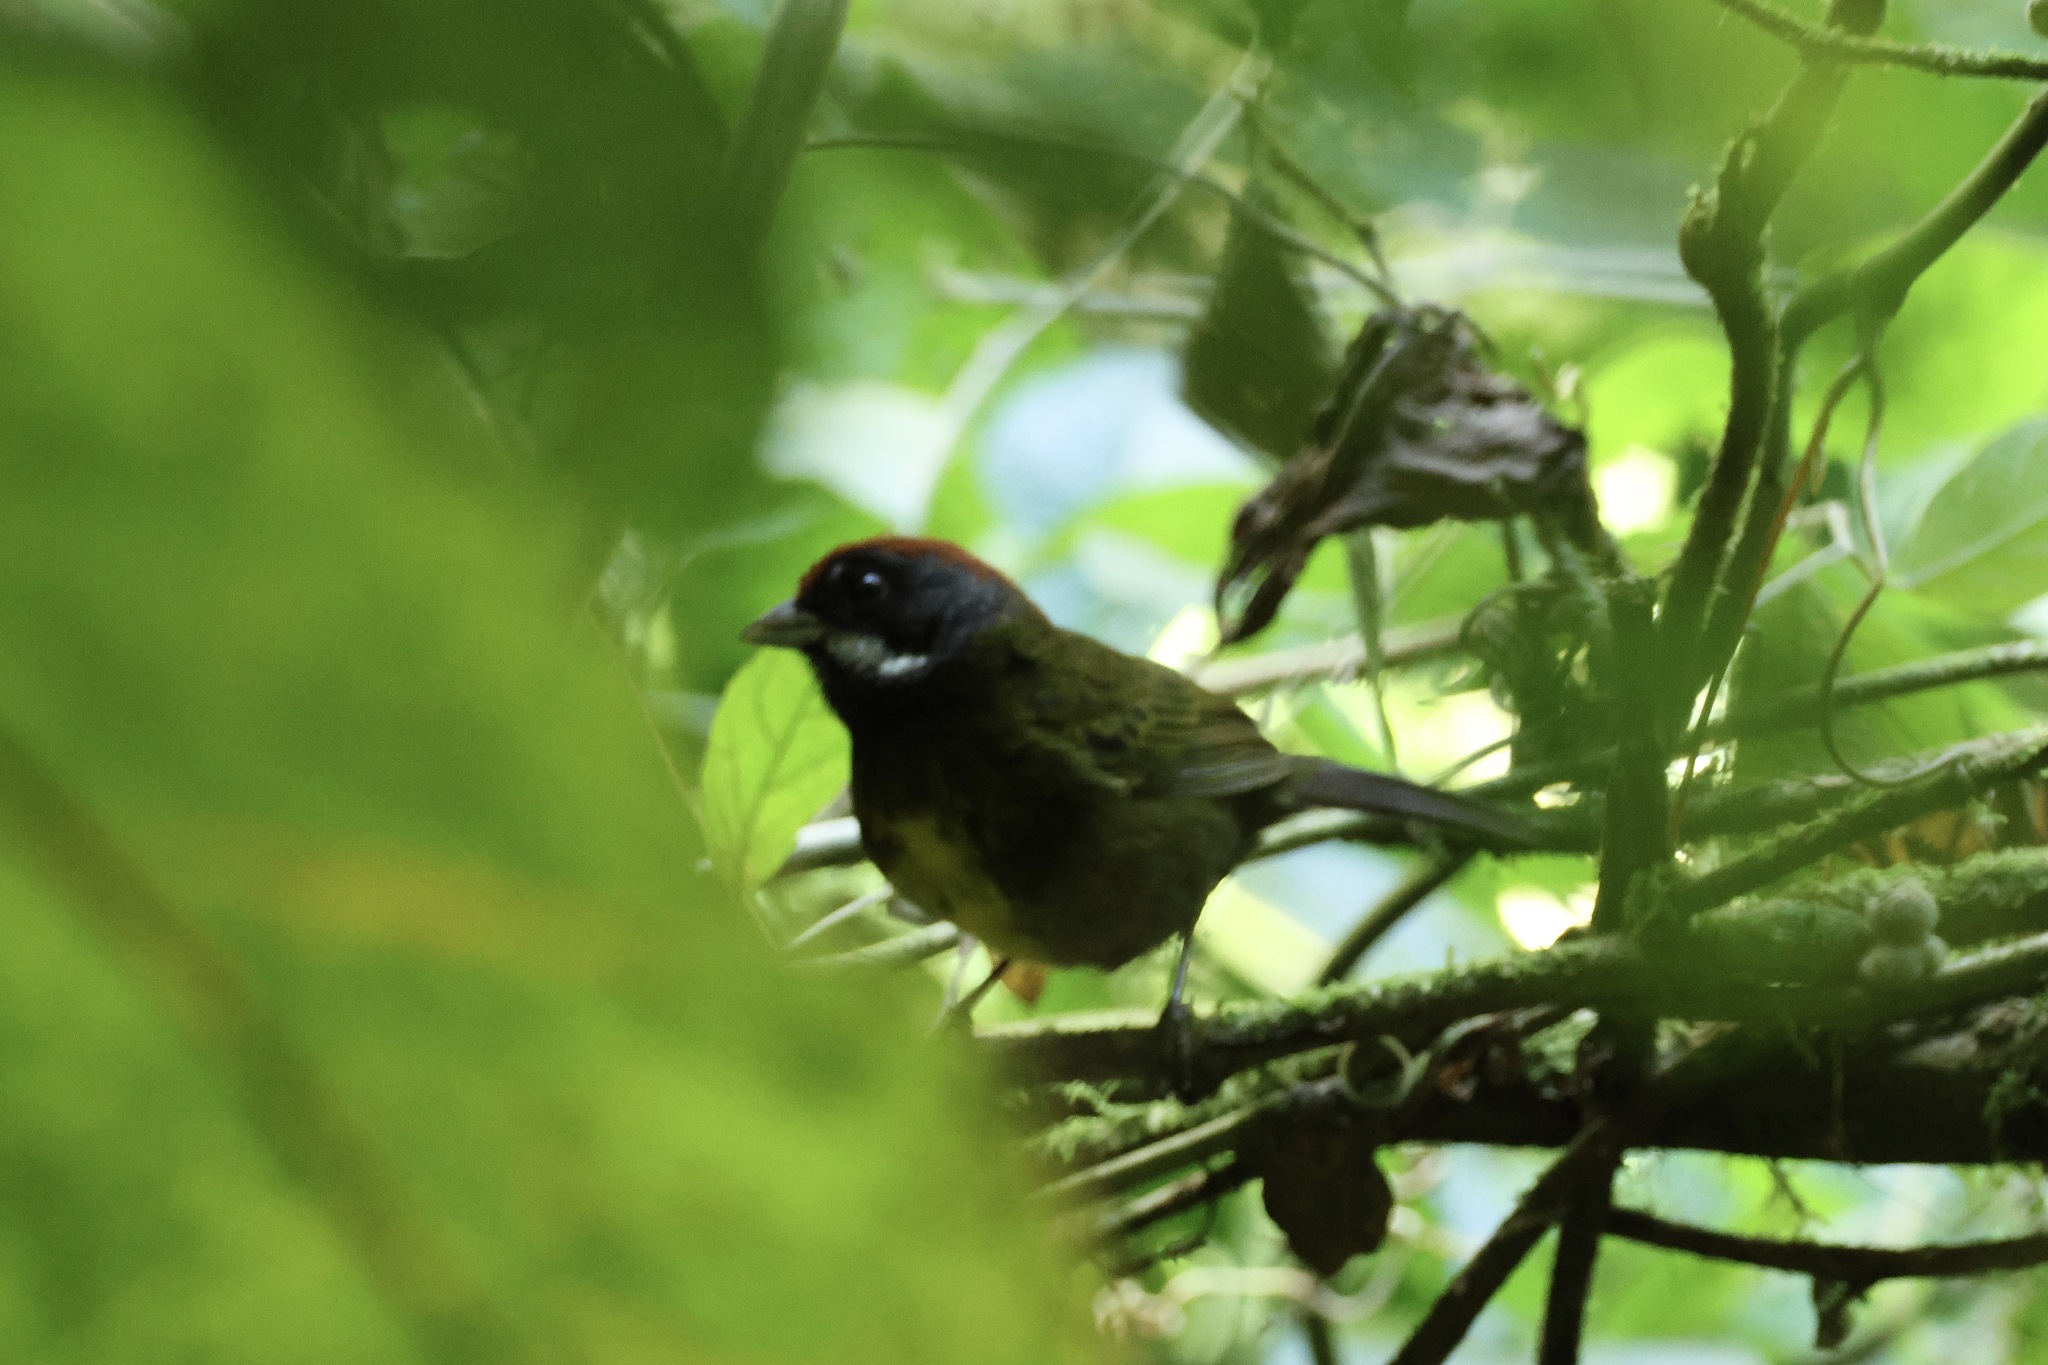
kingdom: Animalia
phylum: Chordata
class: Aves
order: Passeriformes
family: Passerellidae
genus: Arremon
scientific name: Arremon crassirostris
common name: Sooty-faced finch
